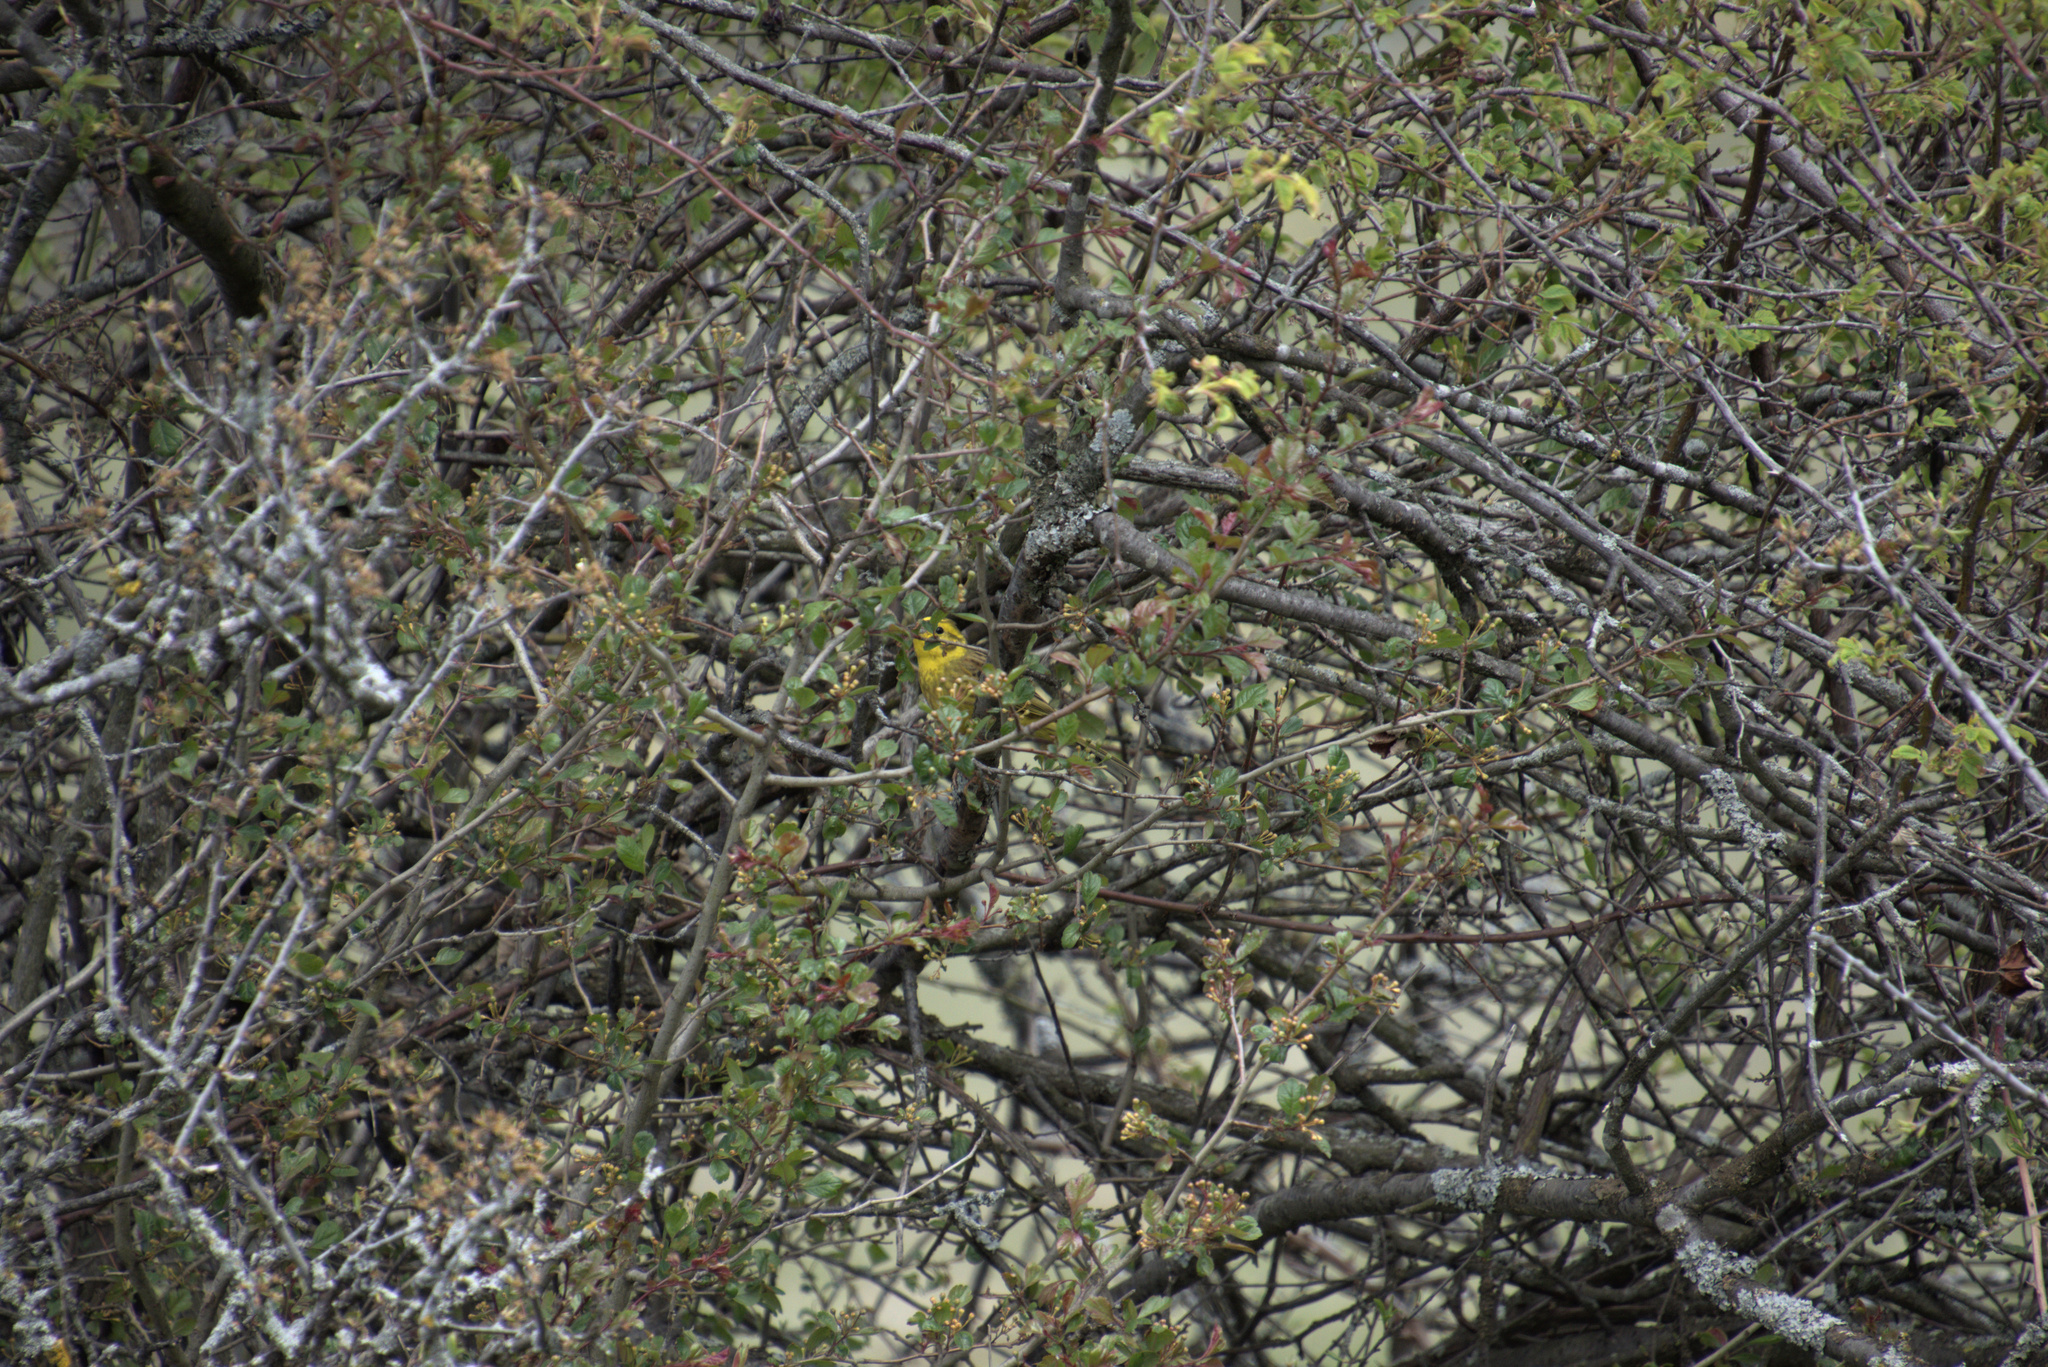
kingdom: Animalia
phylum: Chordata
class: Aves
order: Passeriformes
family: Emberizidae
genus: Emberiza
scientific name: Emberiza citrinella
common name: Yellowhammer
